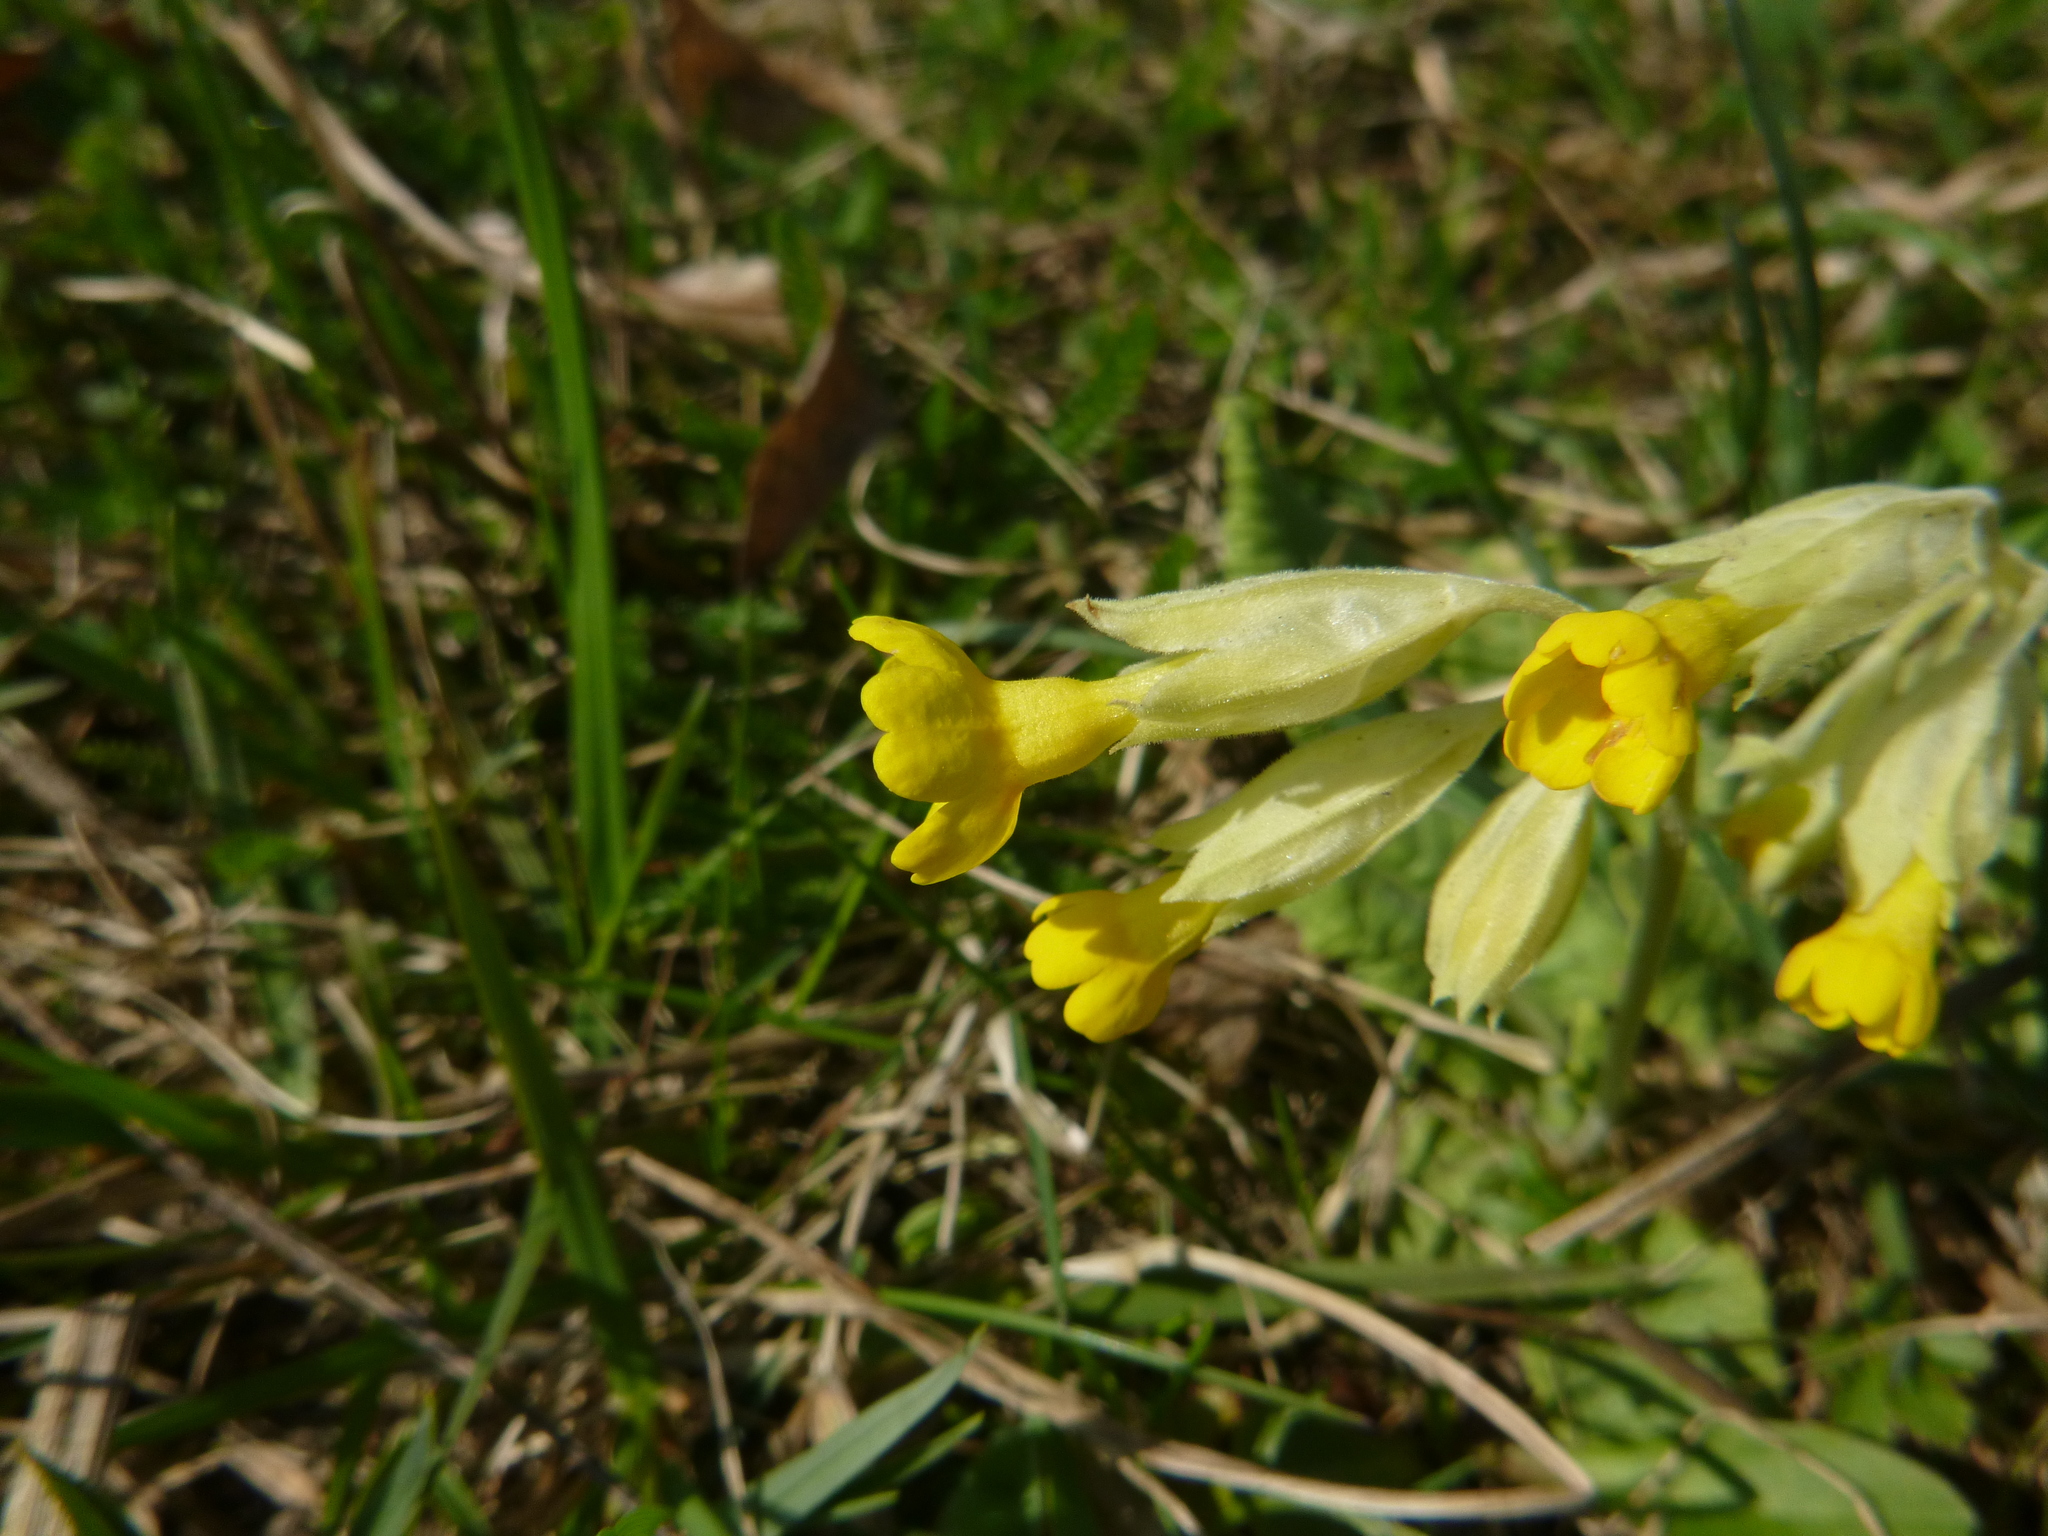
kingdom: Plantae
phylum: Tracheophyta
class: Magnoliopsida
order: Ericales
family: Primulaceae
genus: Primula
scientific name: Primula veris
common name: Cowslip
